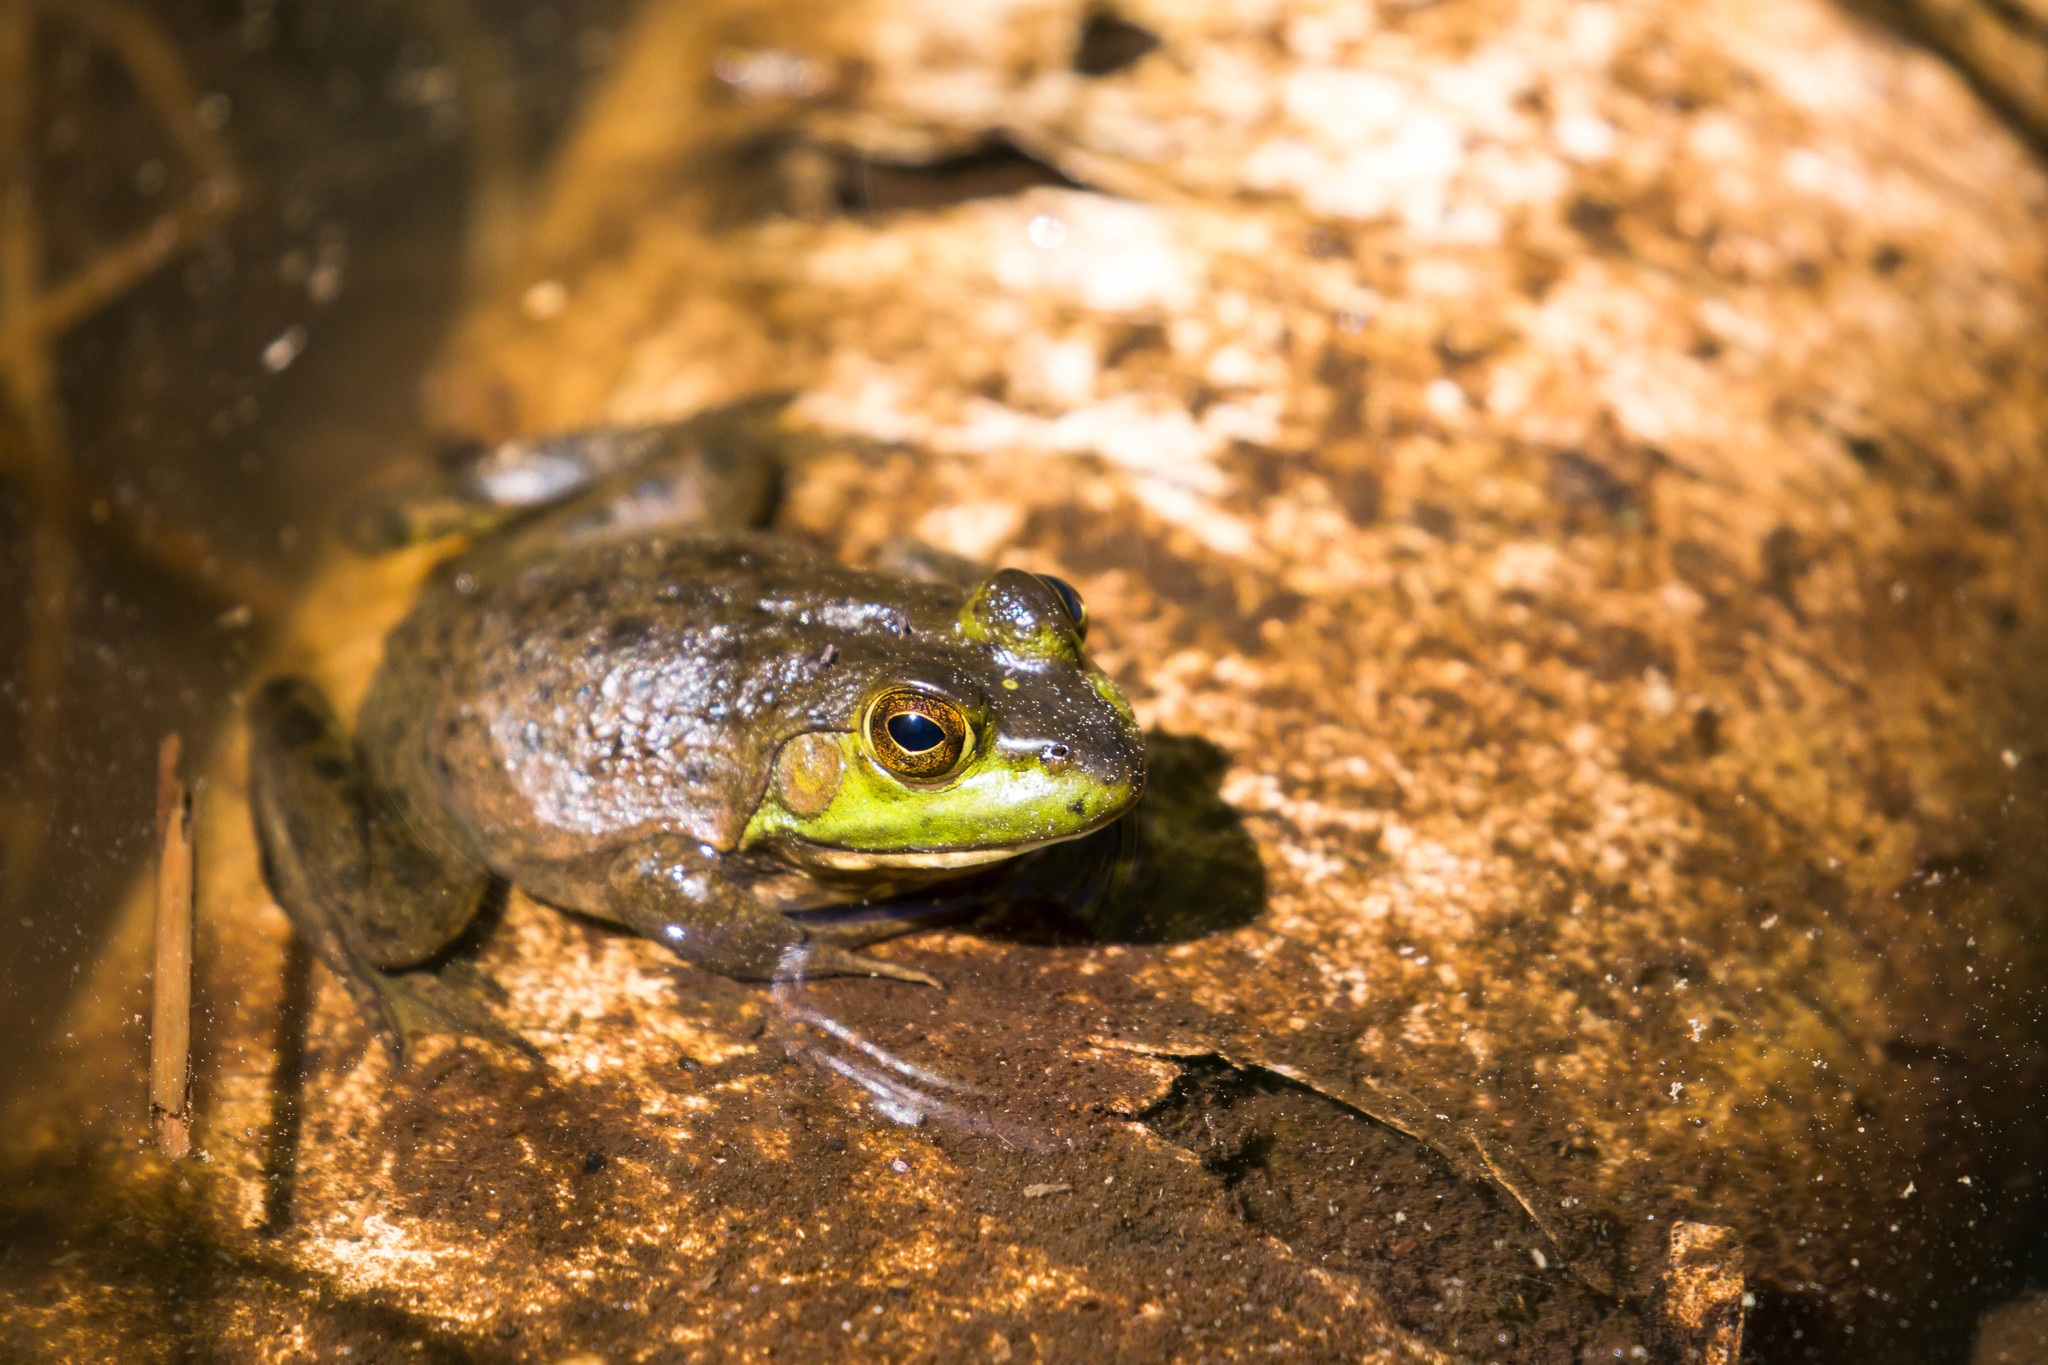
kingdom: Animalia
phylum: Chordata
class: Amphibia
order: Anura
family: Ranidae
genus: Lithobates
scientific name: Lithobates catesbeianus
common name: American bullfrog
